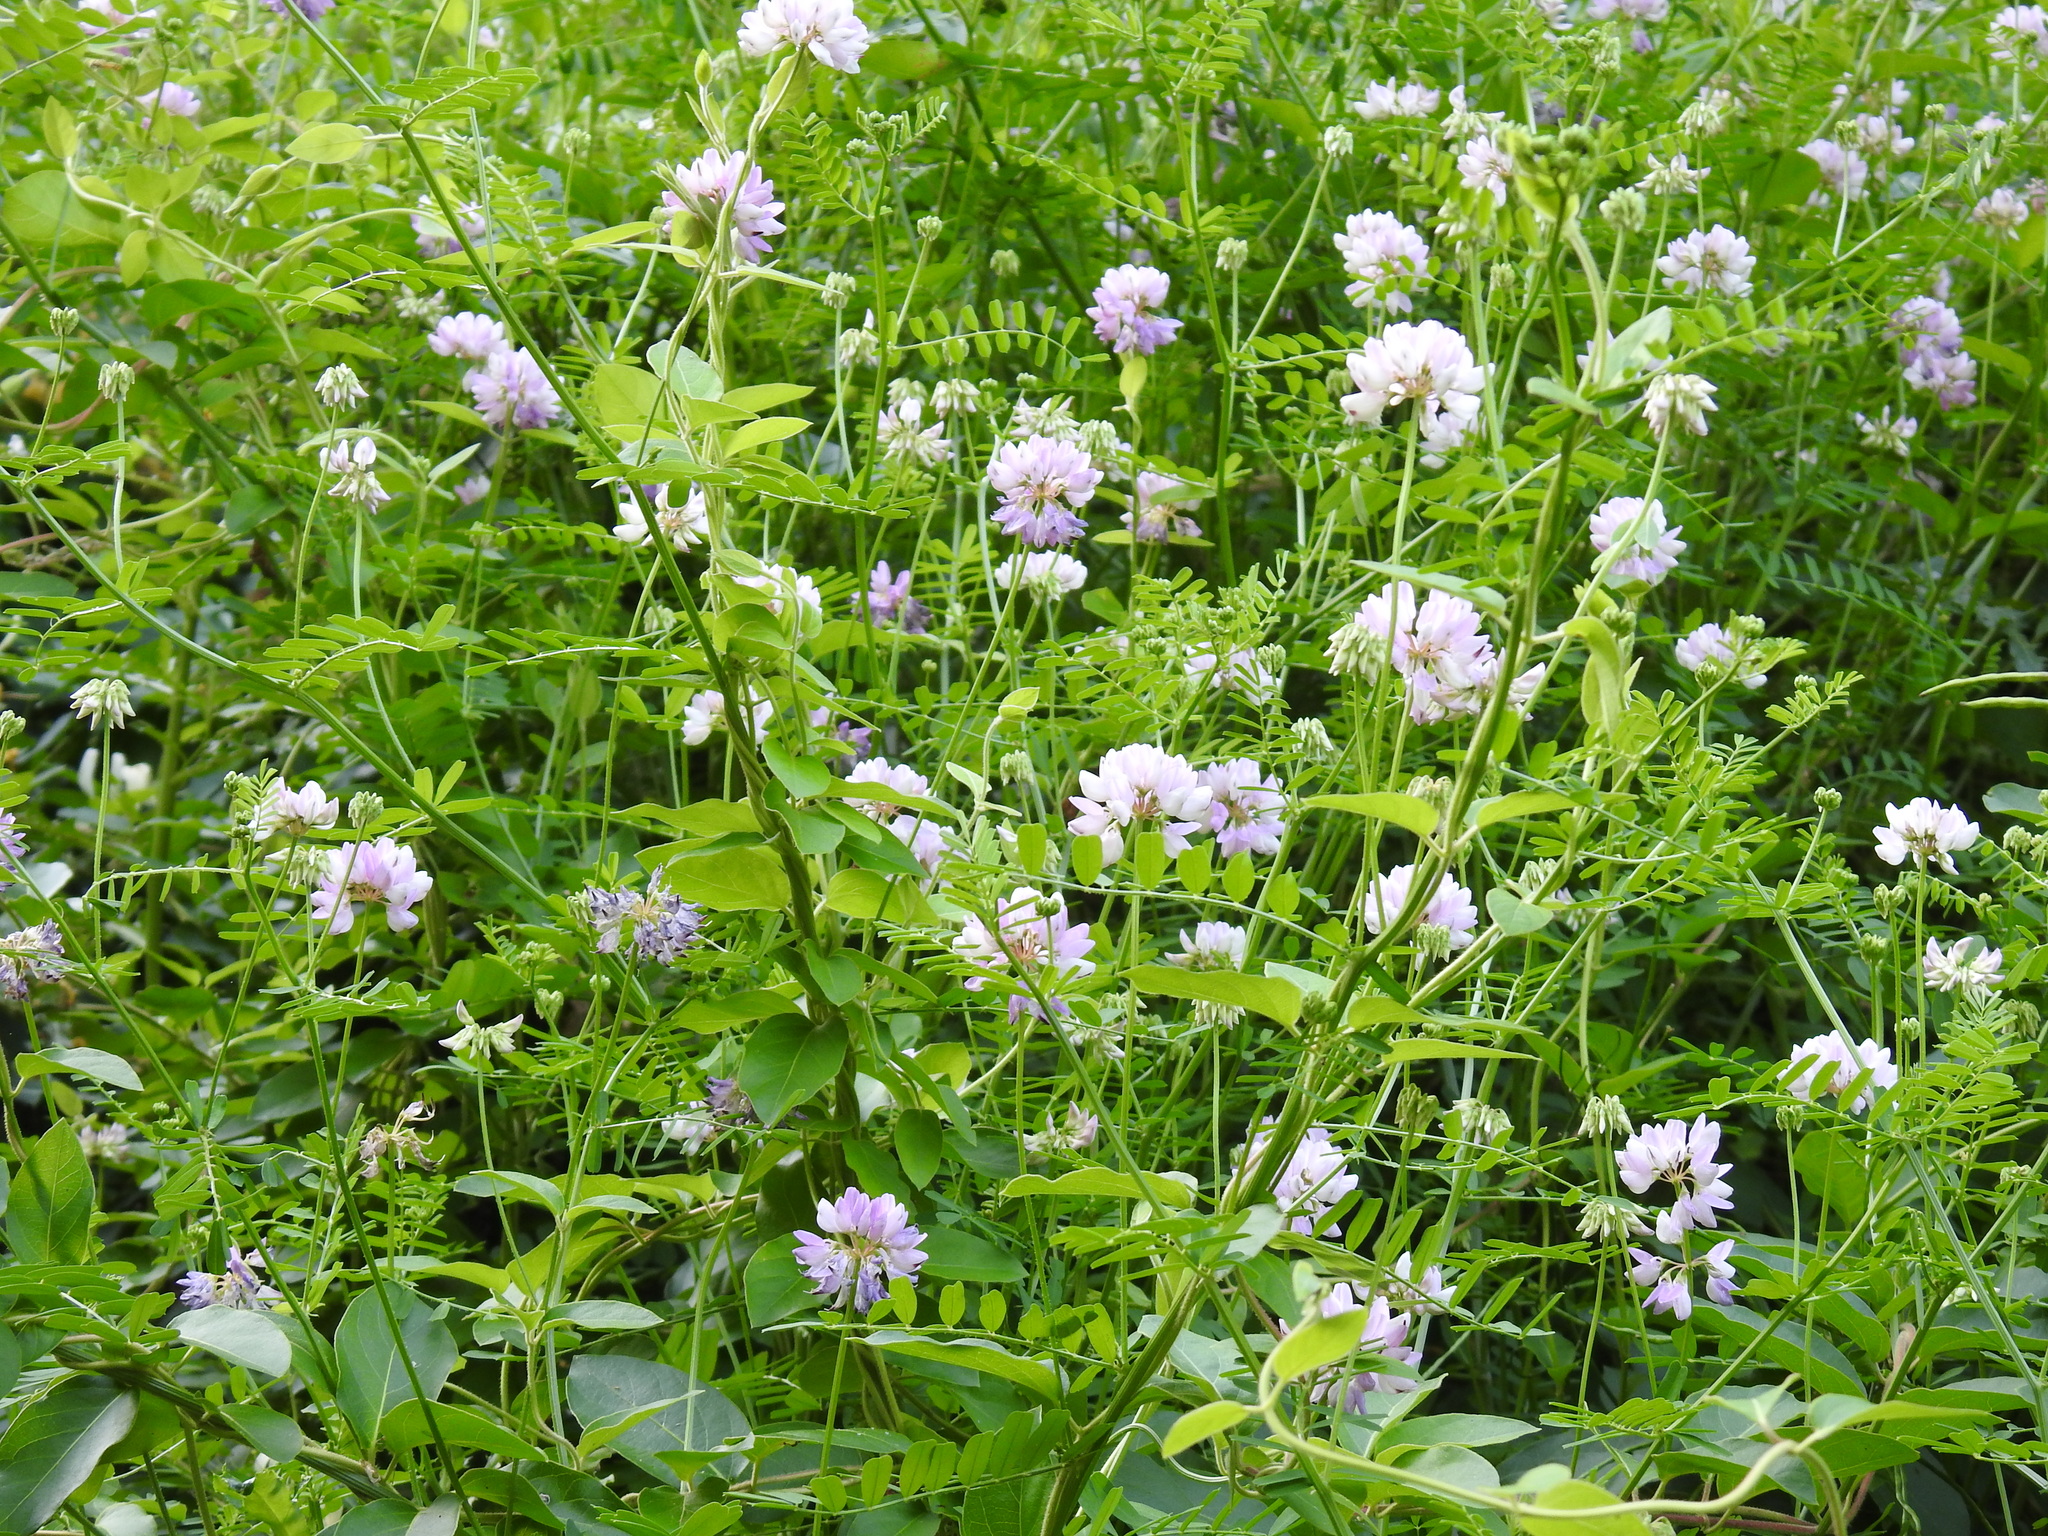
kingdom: Plantae
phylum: Tracheophyta
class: Magnoliopsida
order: Fabales
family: Fabaceae
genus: Coronilla
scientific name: Coronilla varia
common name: Crownvetch
